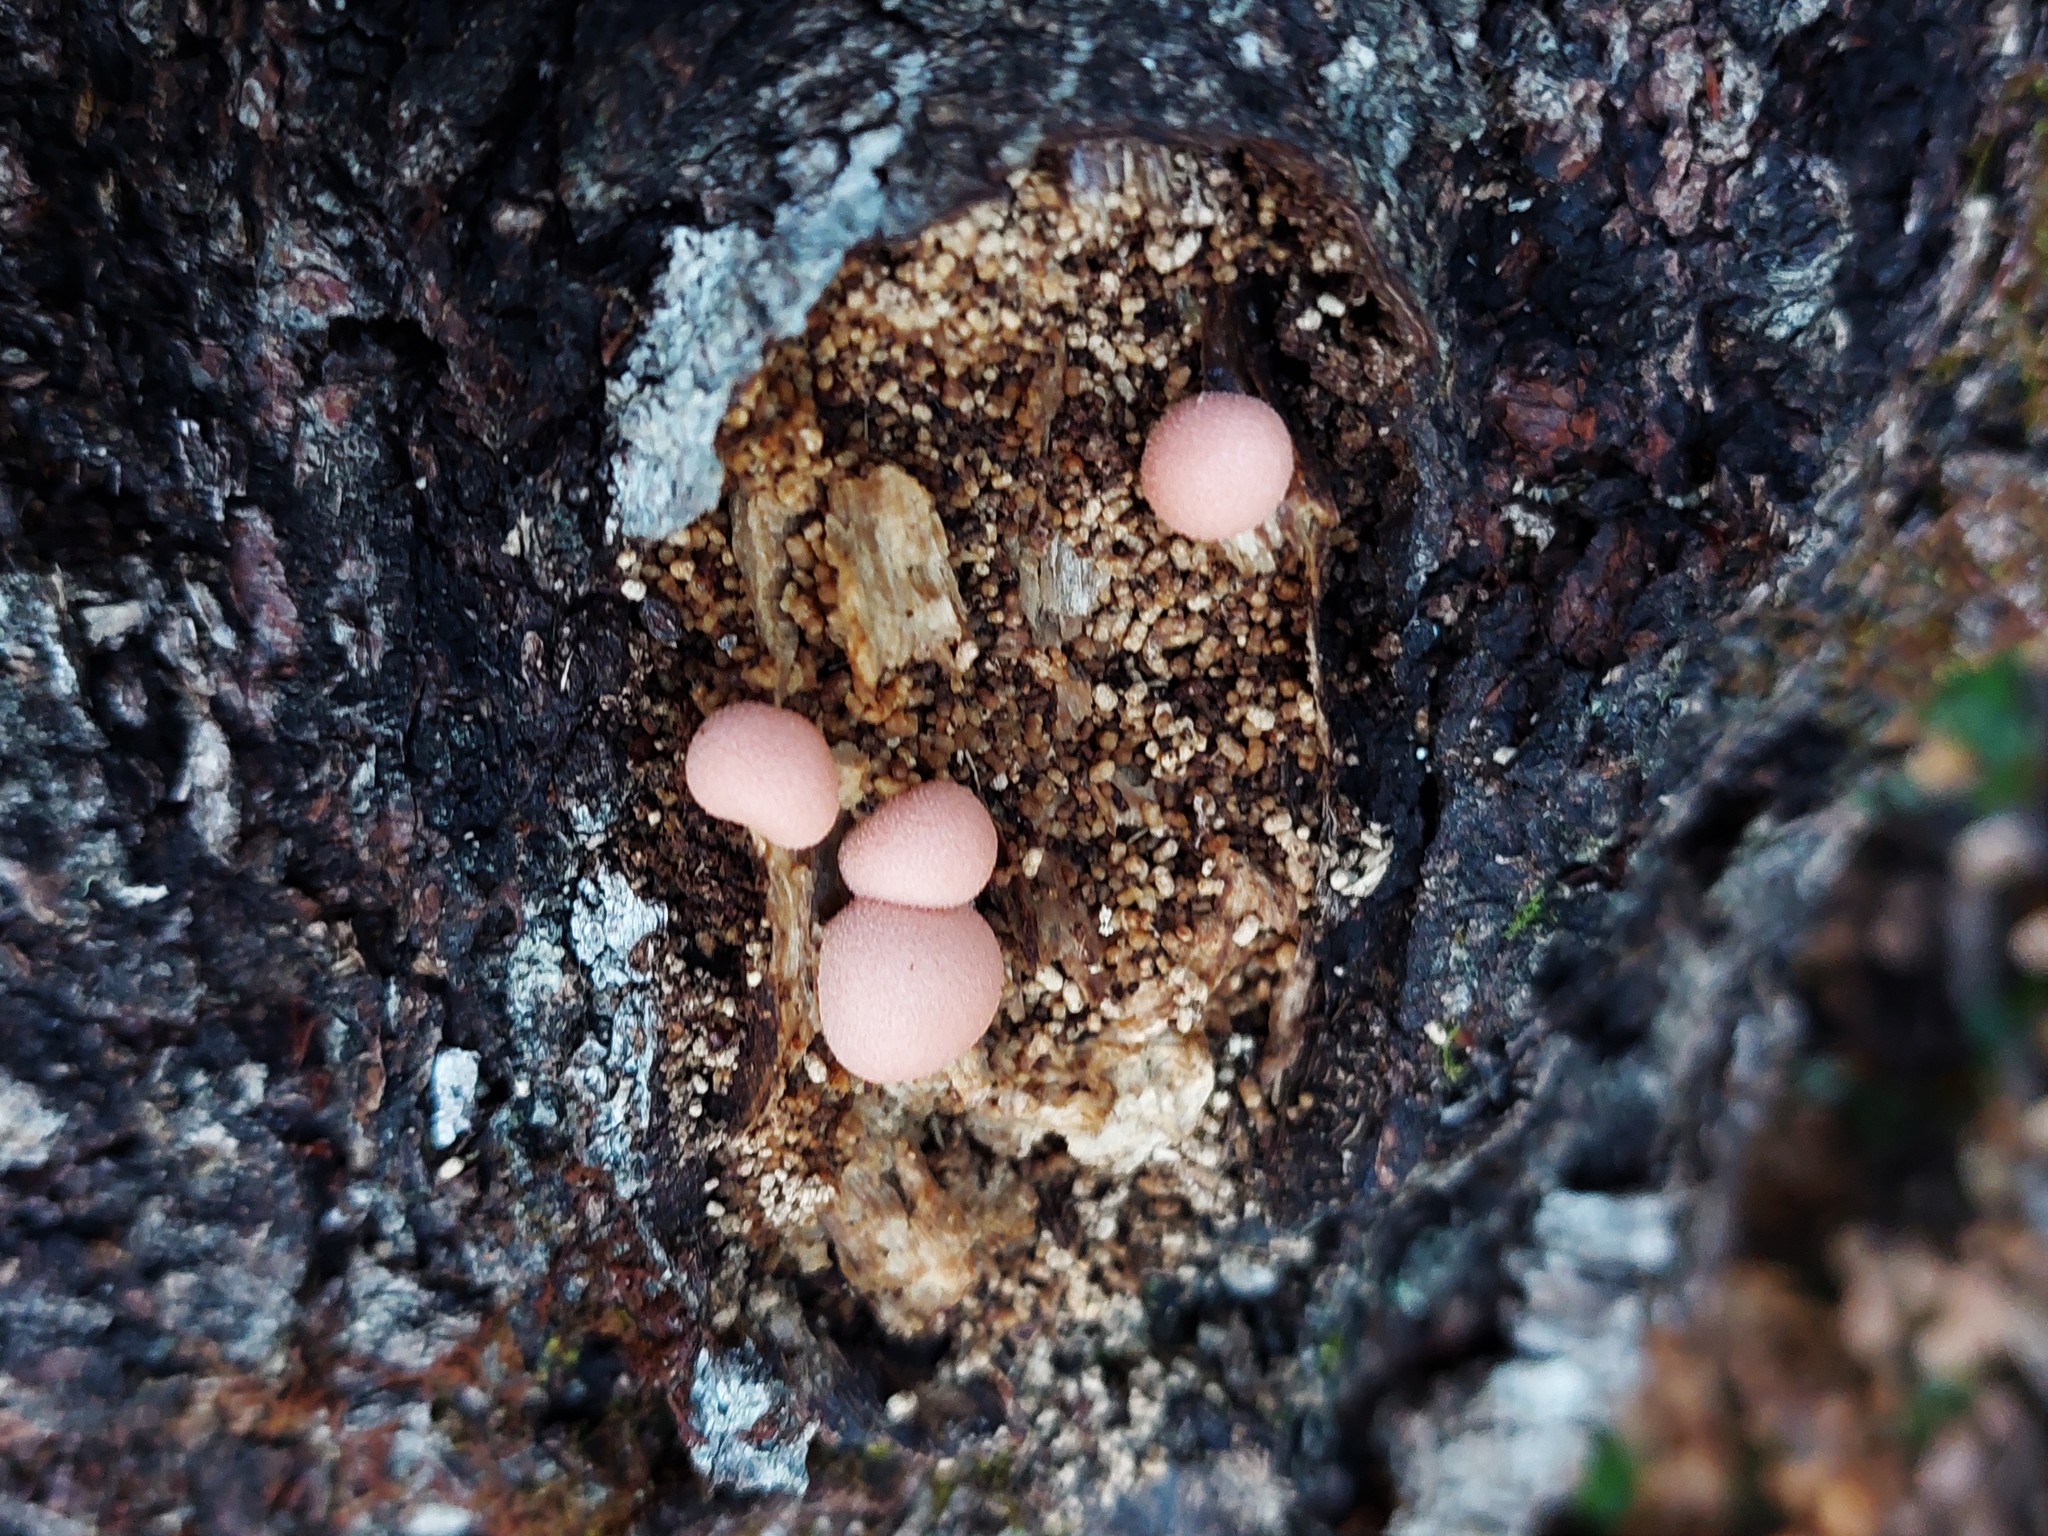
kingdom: Protozoa
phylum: Mycetozoa
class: Myxomycetes
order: Cribrariales
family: Tubiferaceae
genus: Lycogala
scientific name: Lycogala epidendrum
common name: Wolf's milk
